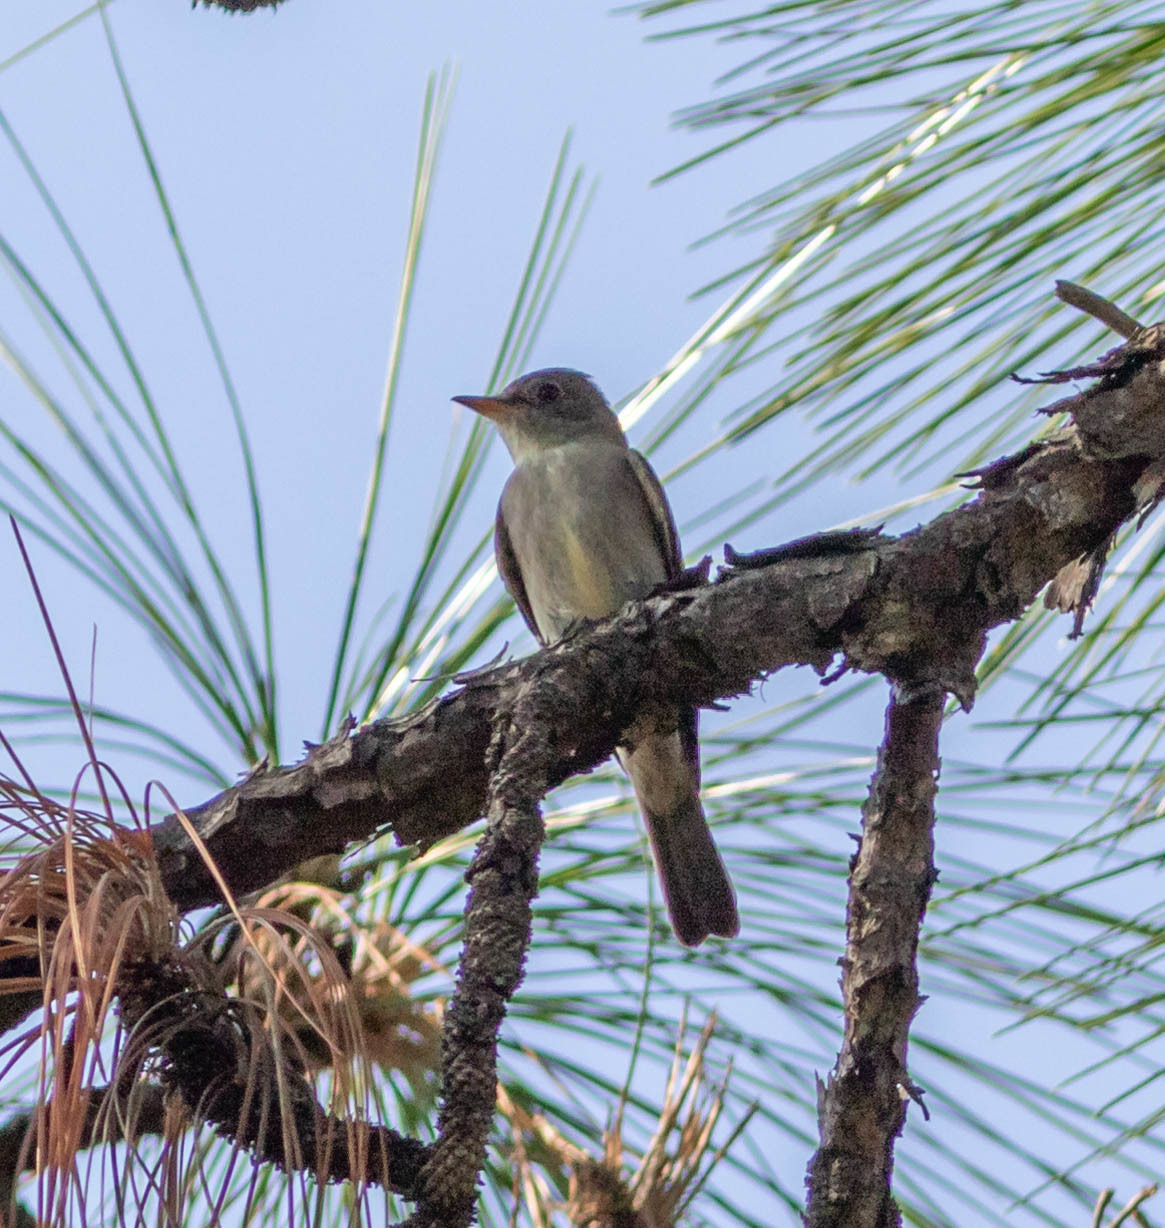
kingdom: Animalia
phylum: Chordata
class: Aves
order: Passeriformes
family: Tyrannidae
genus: Contopus
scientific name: Contopus virens
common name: Eastern wood-pewee
